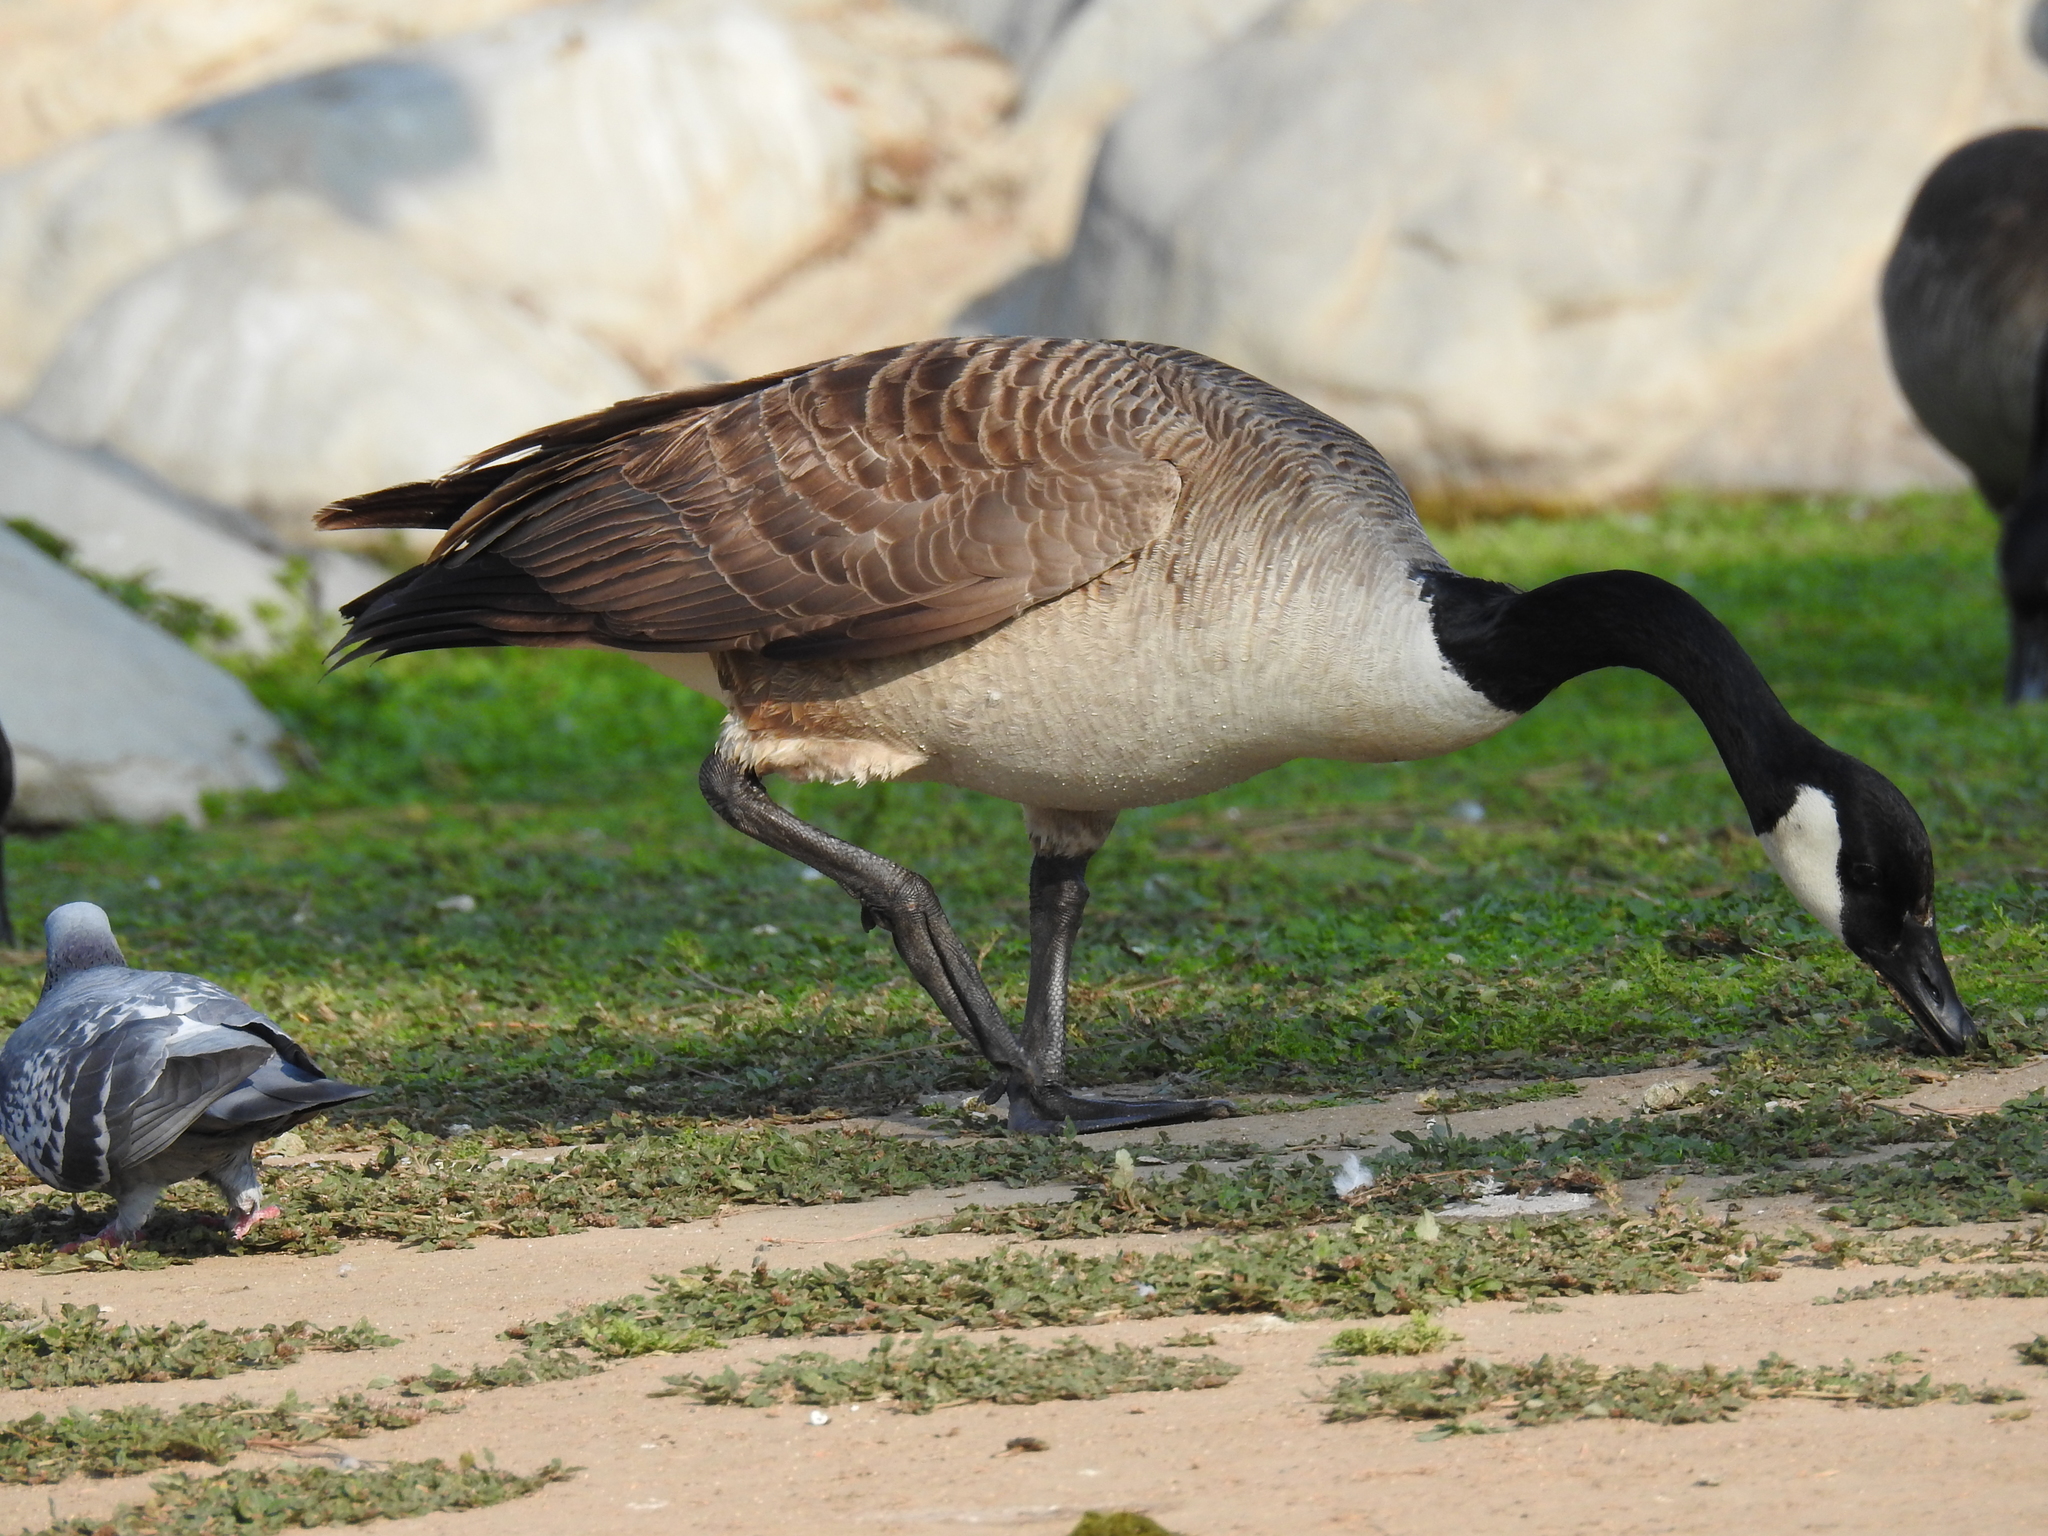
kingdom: Animalia
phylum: Chordata
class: Aves
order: Anseriformes
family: Anatidae
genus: Branta
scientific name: Branta canadensis
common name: Canada goose
